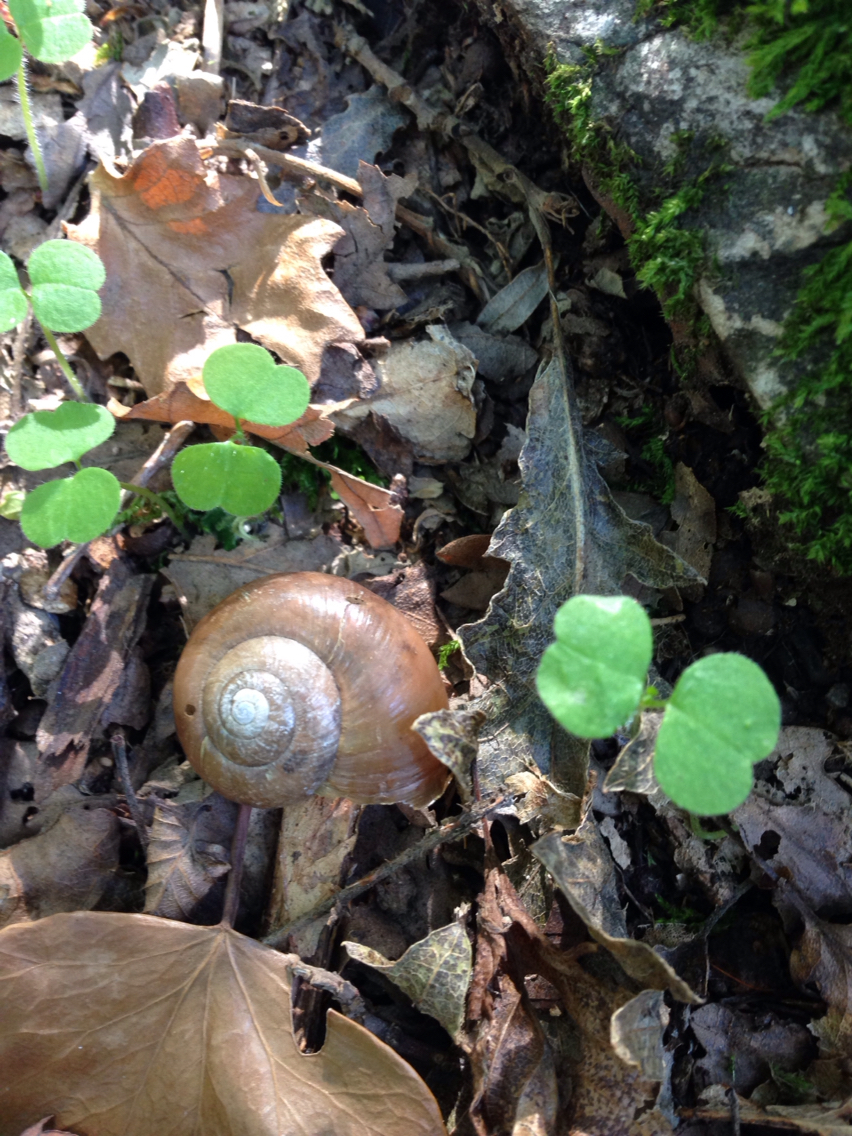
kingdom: Animalia
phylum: Mollusca
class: Gastropoda
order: Stylommatophora
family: Gastrodontidae
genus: Retinella
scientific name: Retinella olivetorum
